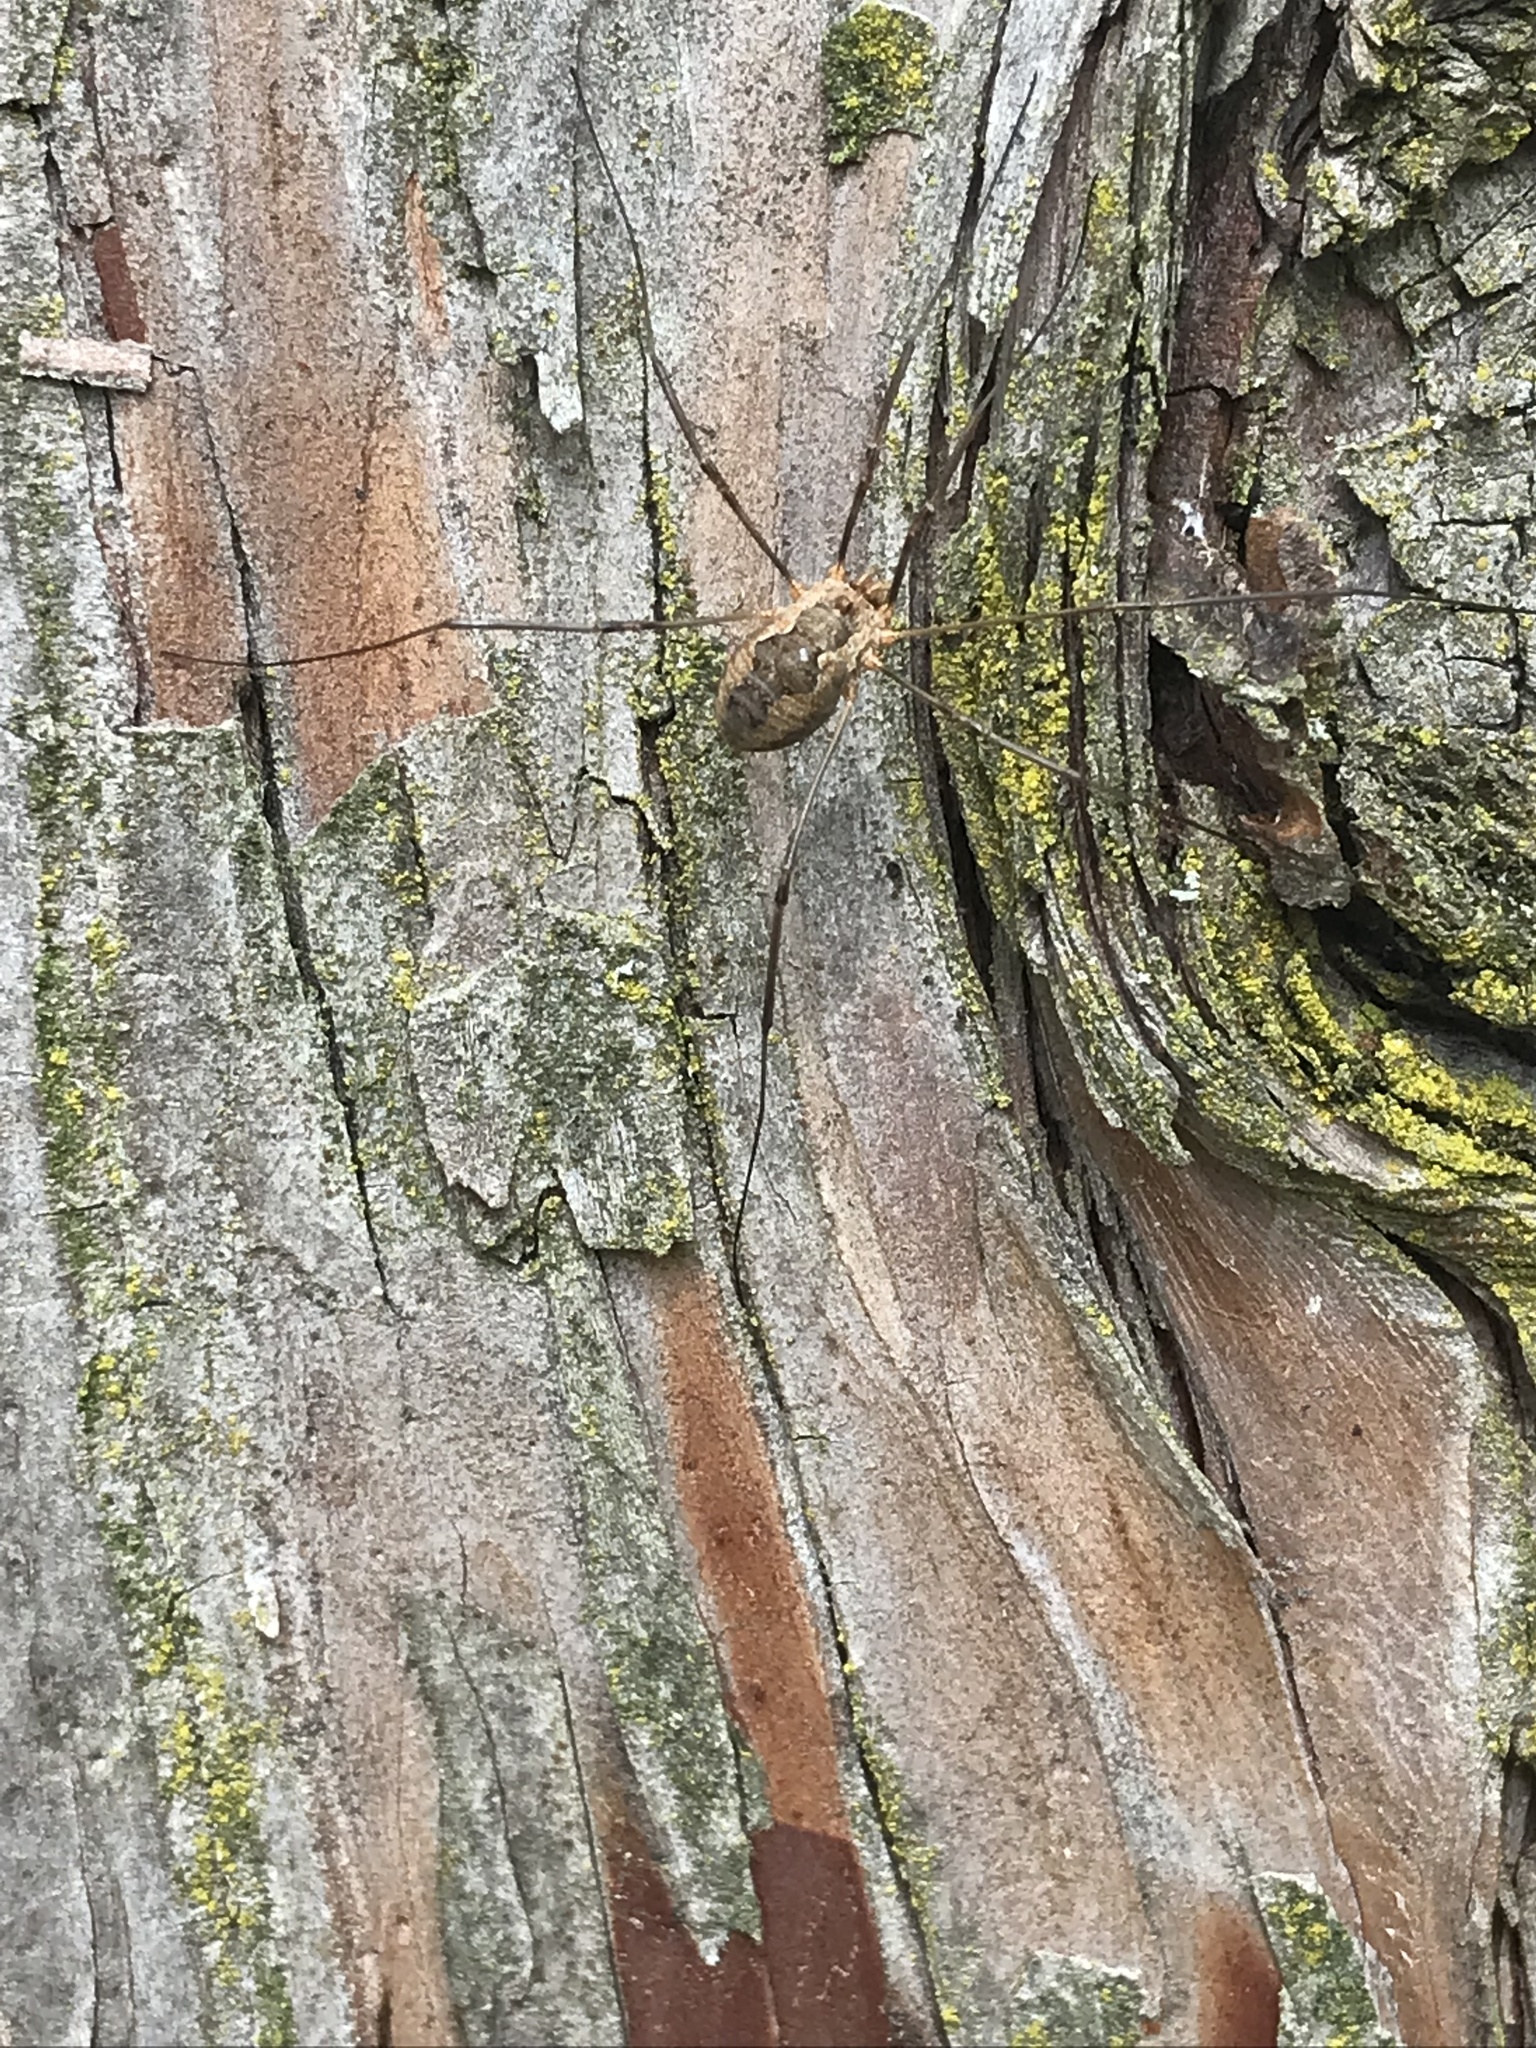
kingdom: Animalia
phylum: Arthropoda
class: Arachnida
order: Opiliones
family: Phalangiidae
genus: Phalangium
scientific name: Phalangium opilio
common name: Daddy longleg
